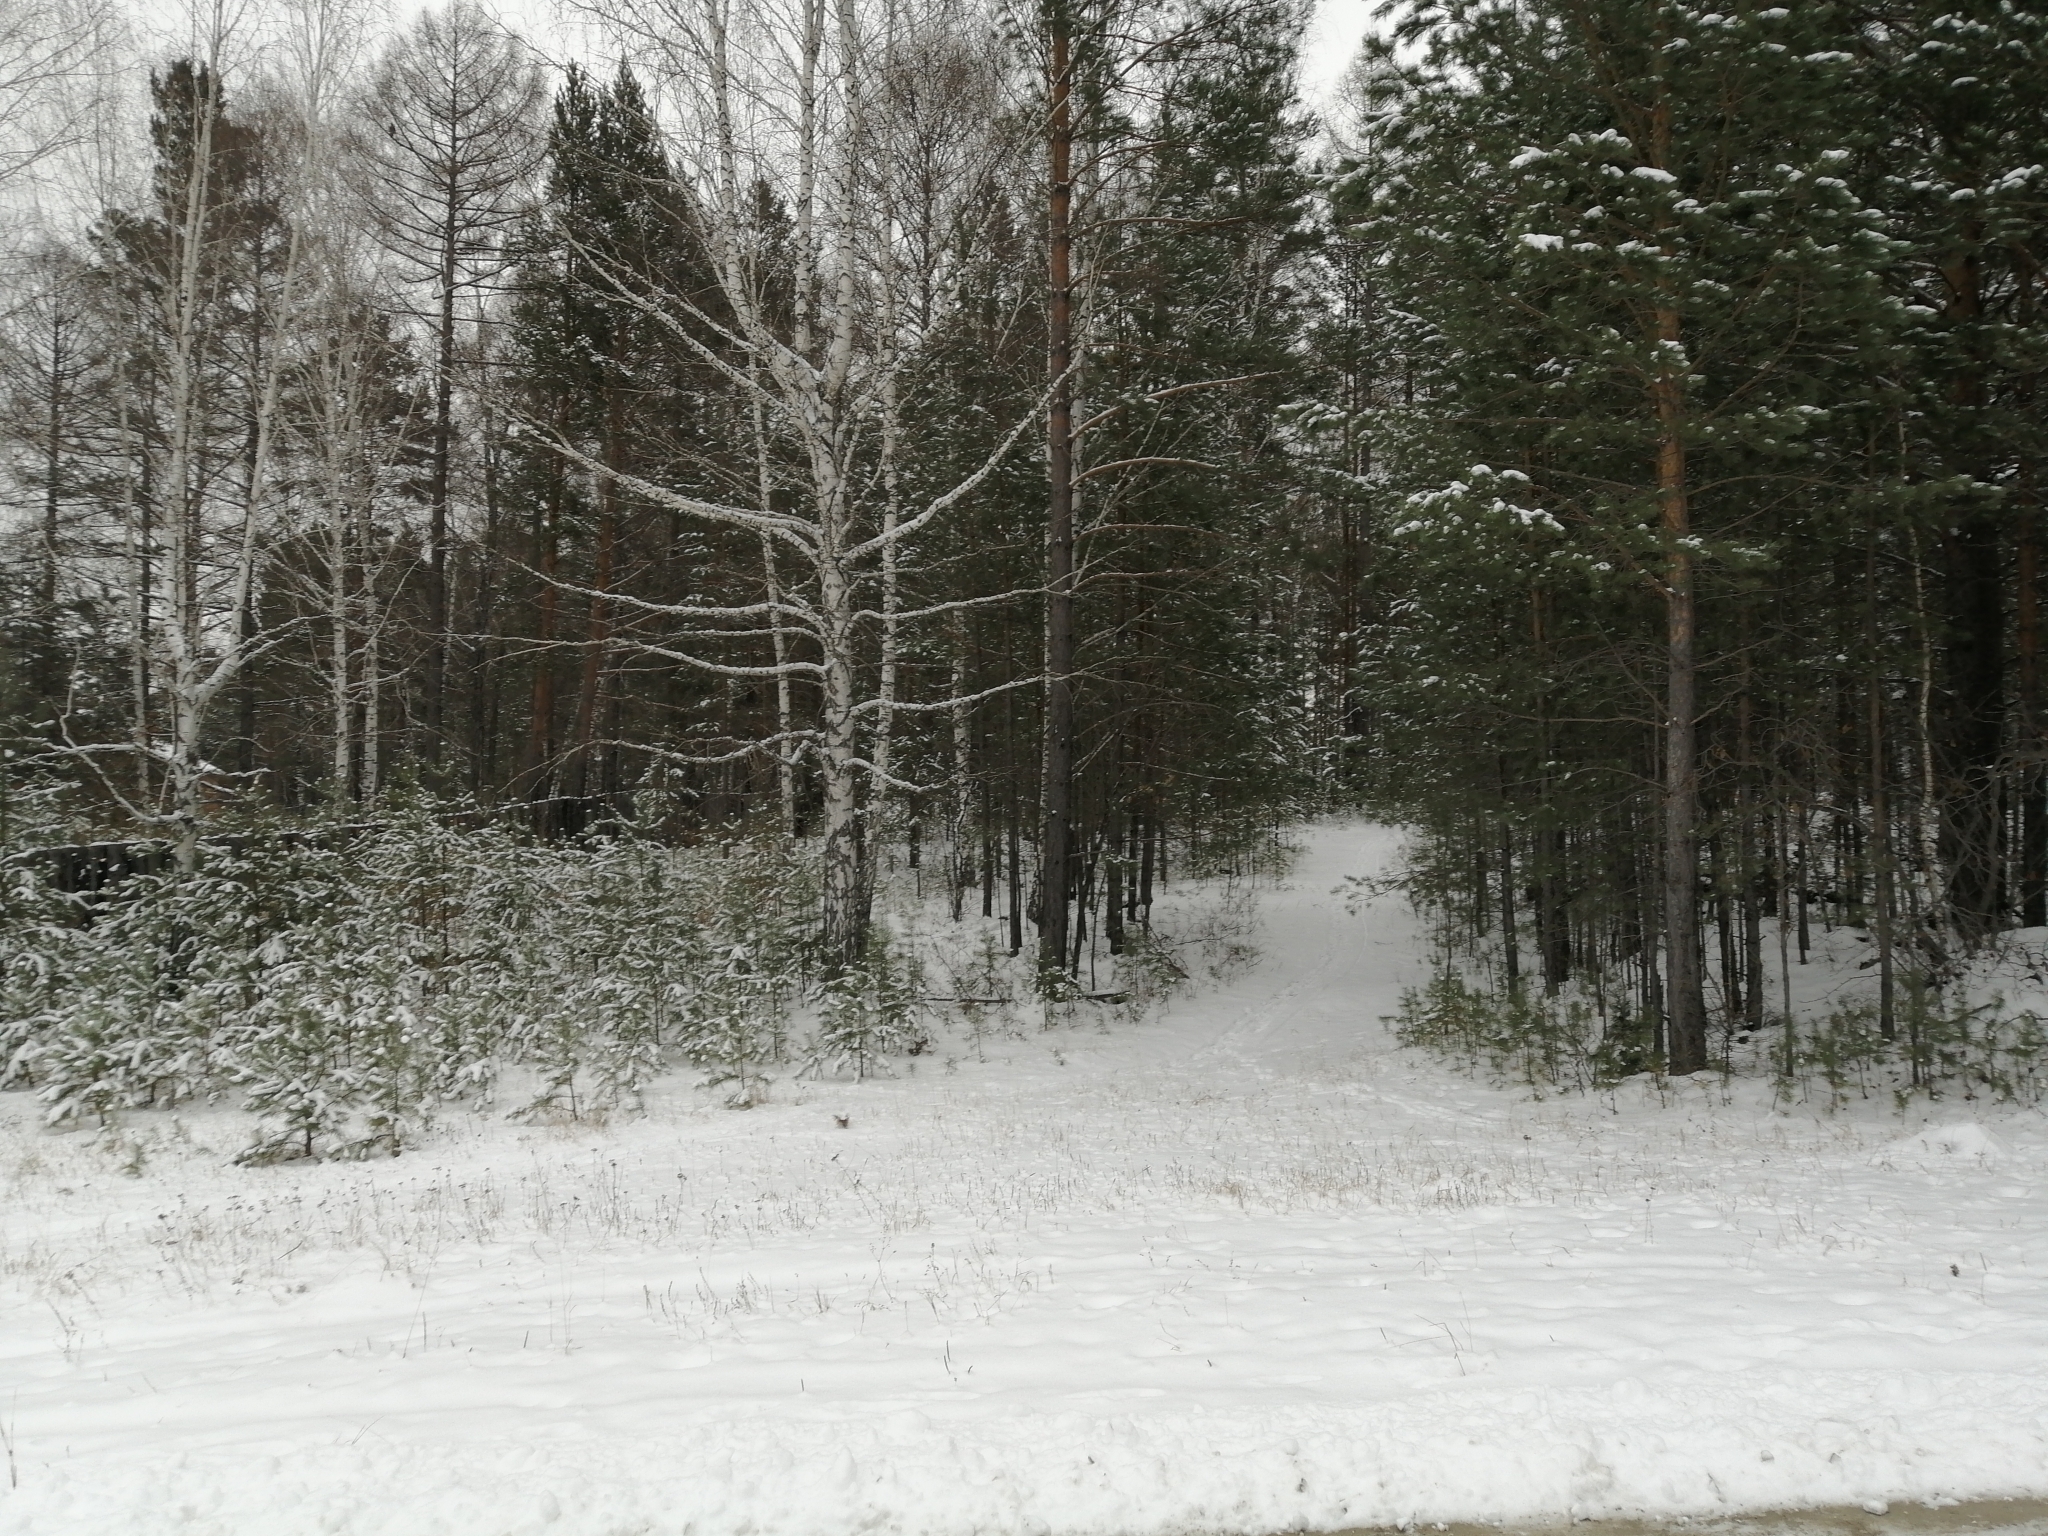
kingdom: Plantae
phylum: Tracheophyta
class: Pinopsida
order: Pinales
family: Pinaceae
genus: Pinus
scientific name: Pinus sylvestris
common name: Scots pine
